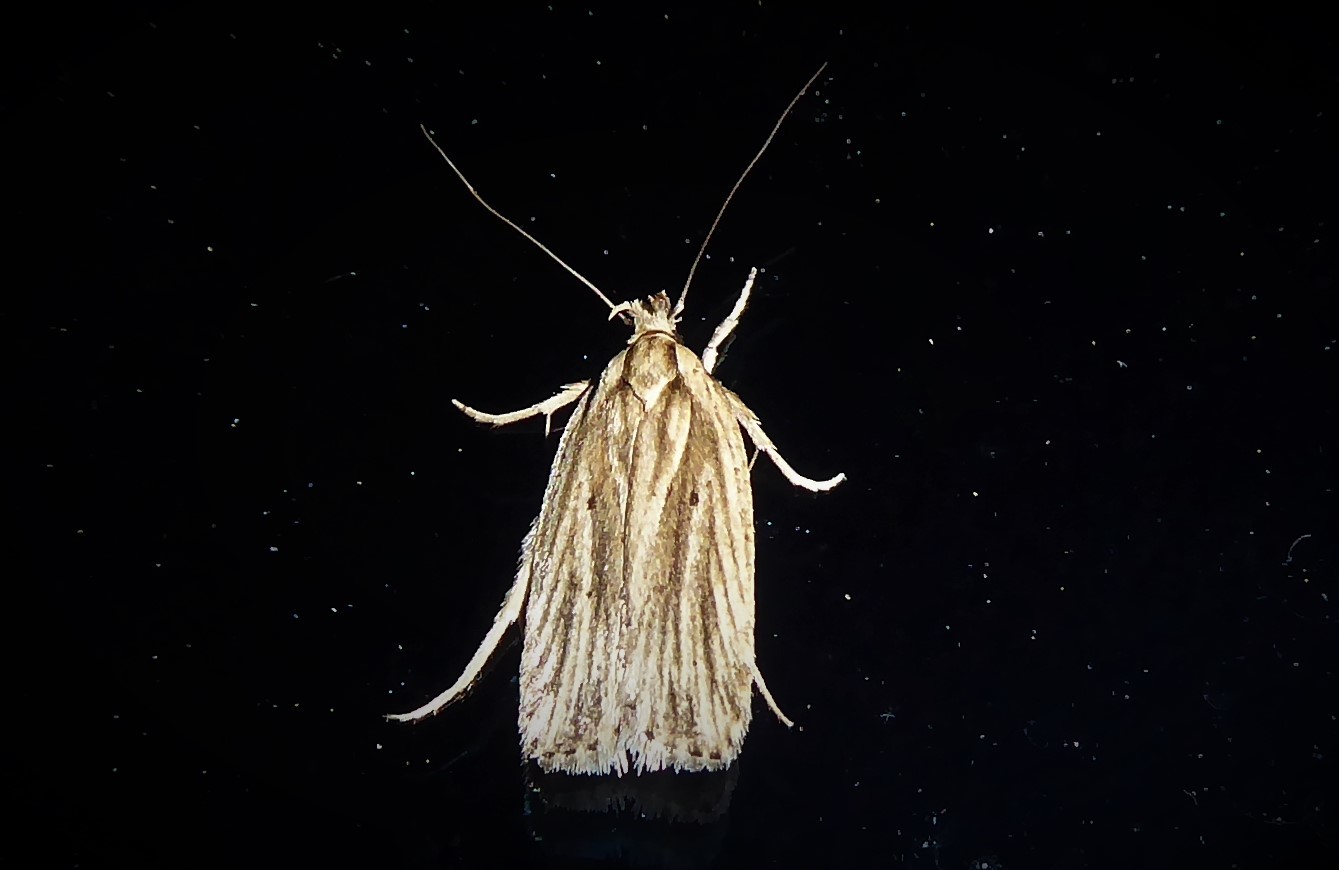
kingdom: Animalia
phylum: Arthropoda
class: Insecta
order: Lepidoptera
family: Depressariidae
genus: Agonopterix
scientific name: Agonopterix
